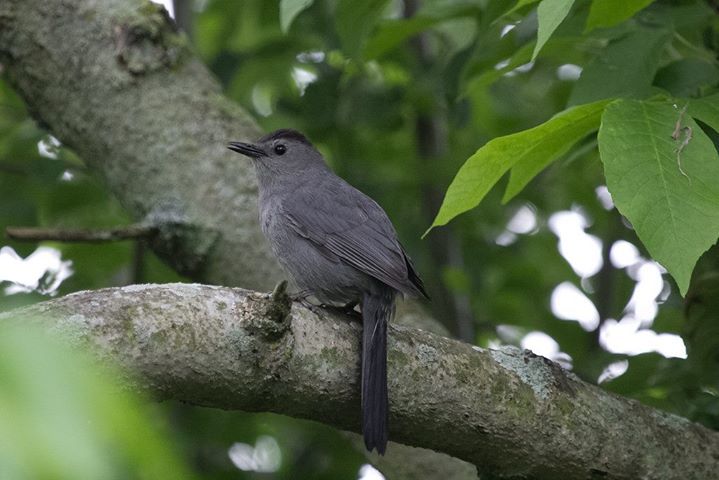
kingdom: Animalia
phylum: Chordata
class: Aves
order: Passeriformes
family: Mimidae
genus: Dumetella
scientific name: Dumetella carolinensis
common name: Gray catbird
